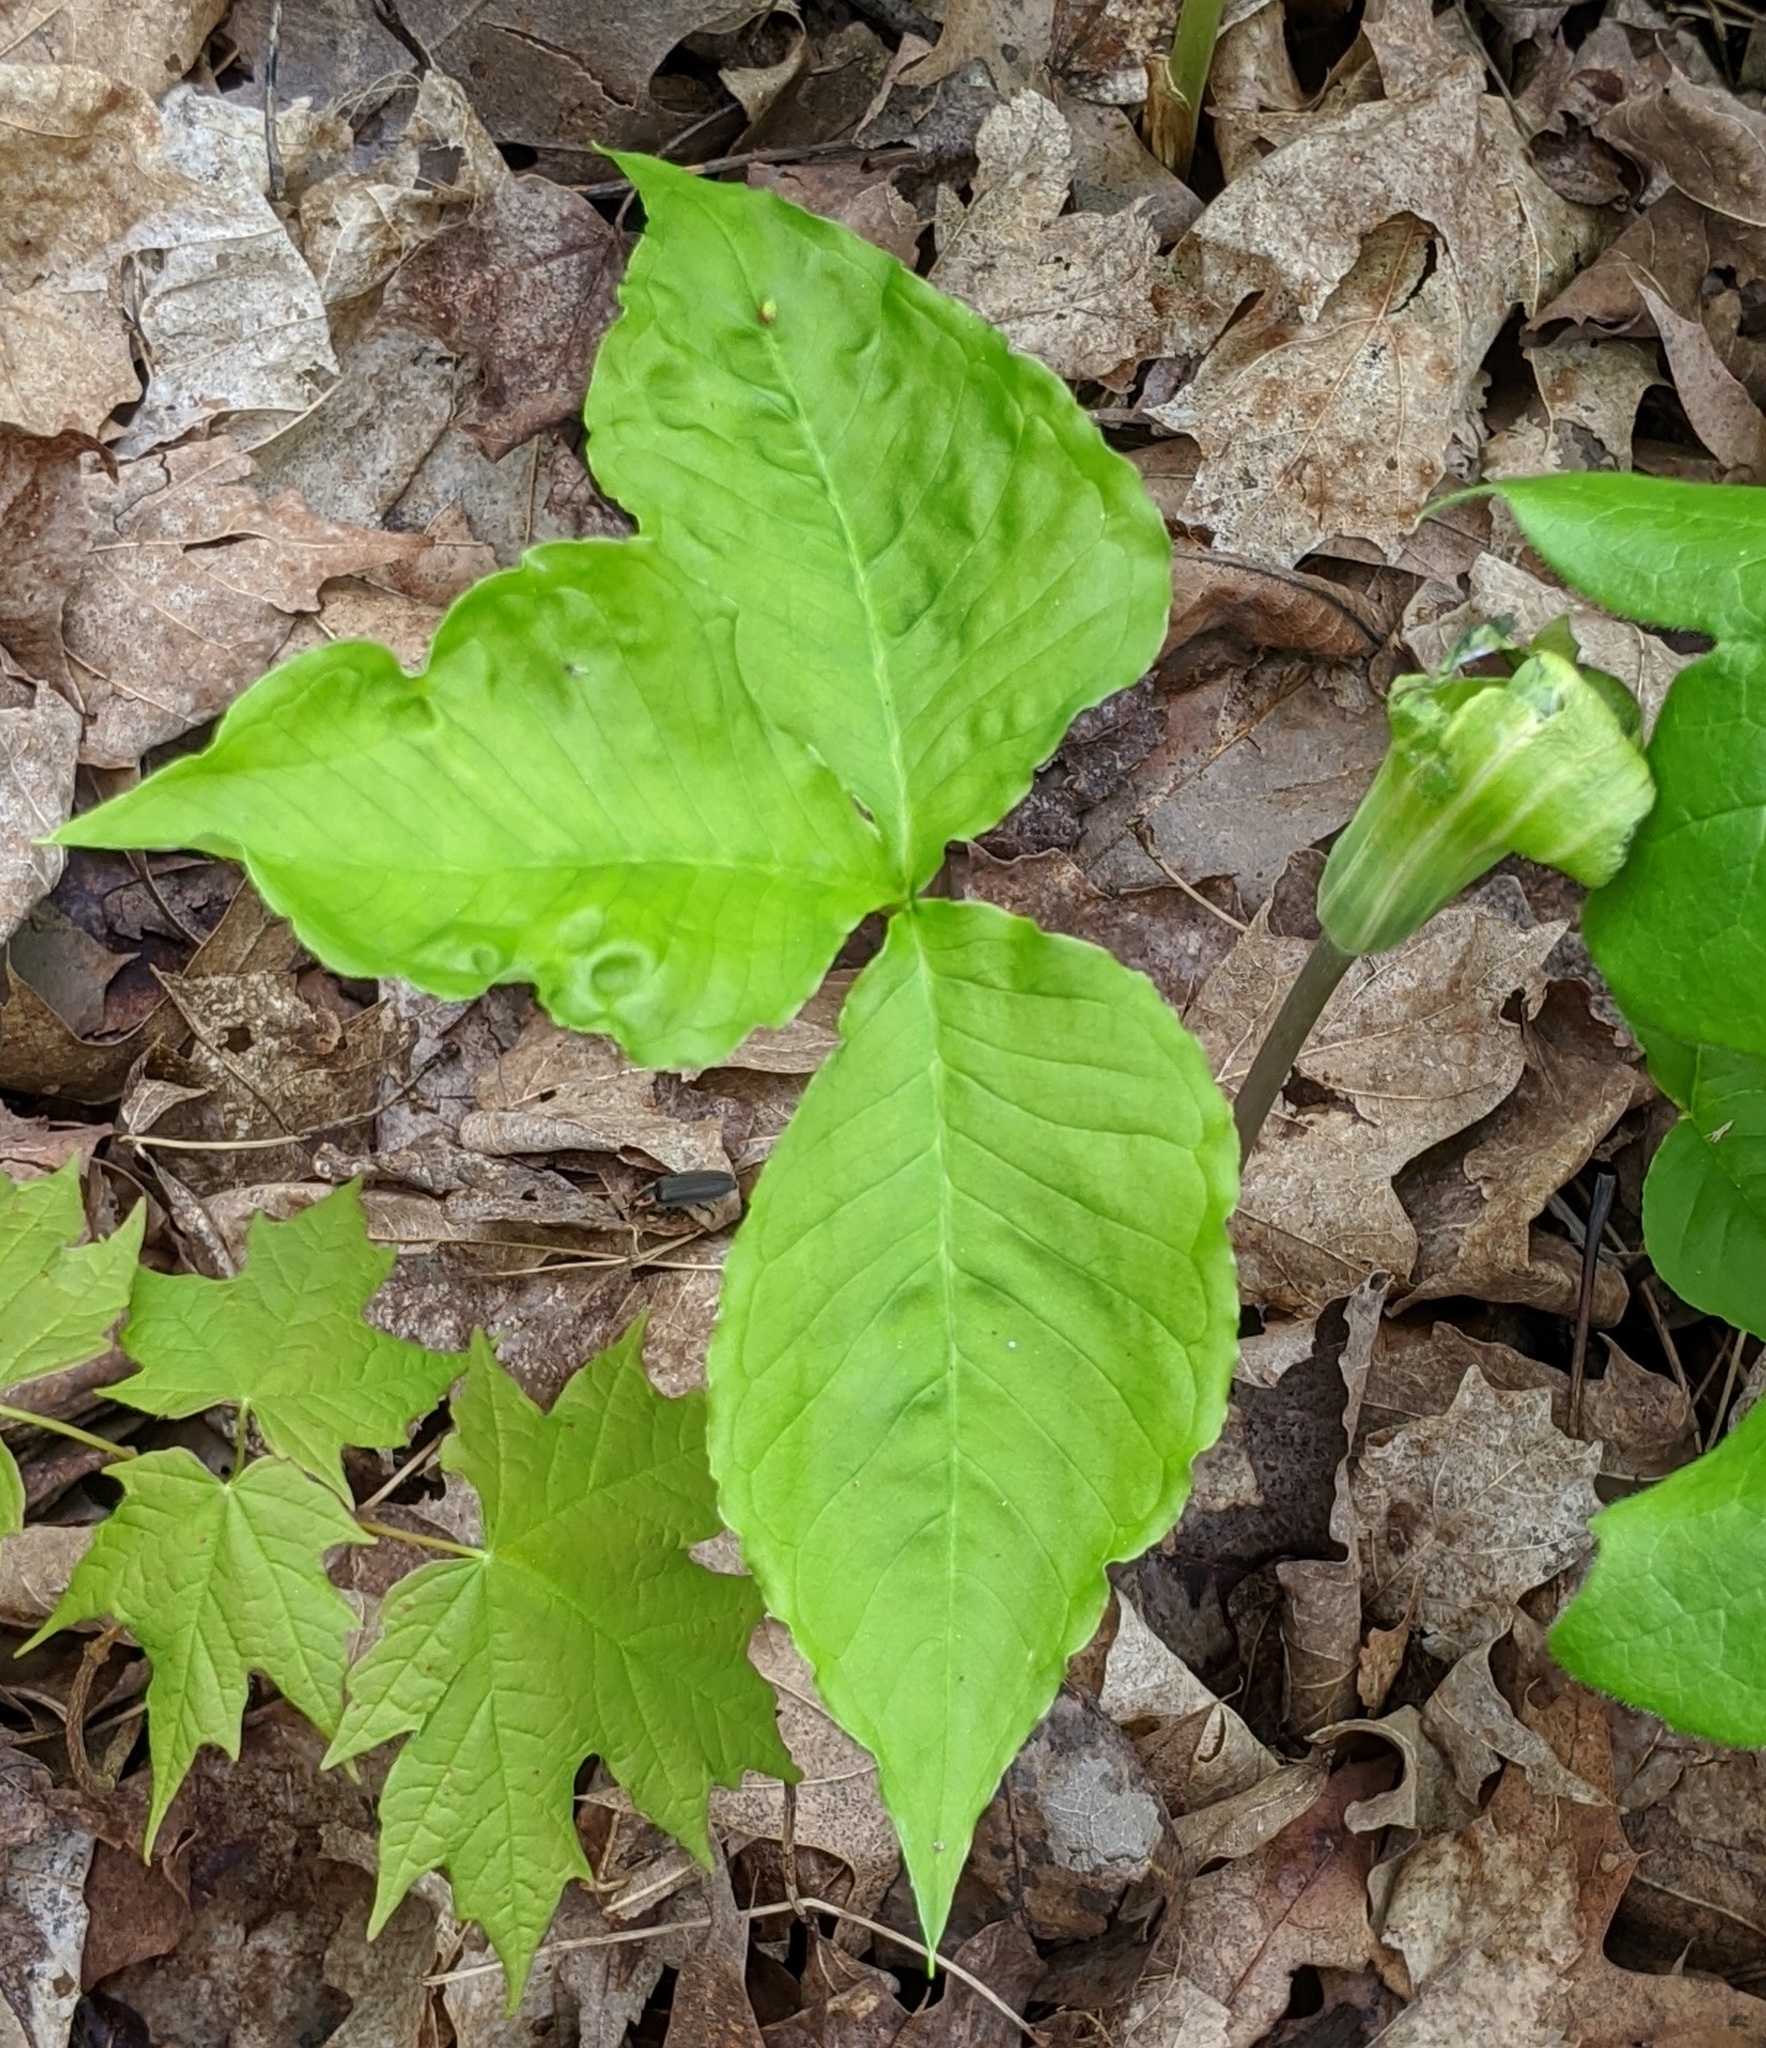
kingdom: Plantae
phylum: Tracheophyta
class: Liliopsida
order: Alismatales
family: Araceae
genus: Arisaema
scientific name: Arisaema triphyllum
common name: Jack-in-the-pulpit
